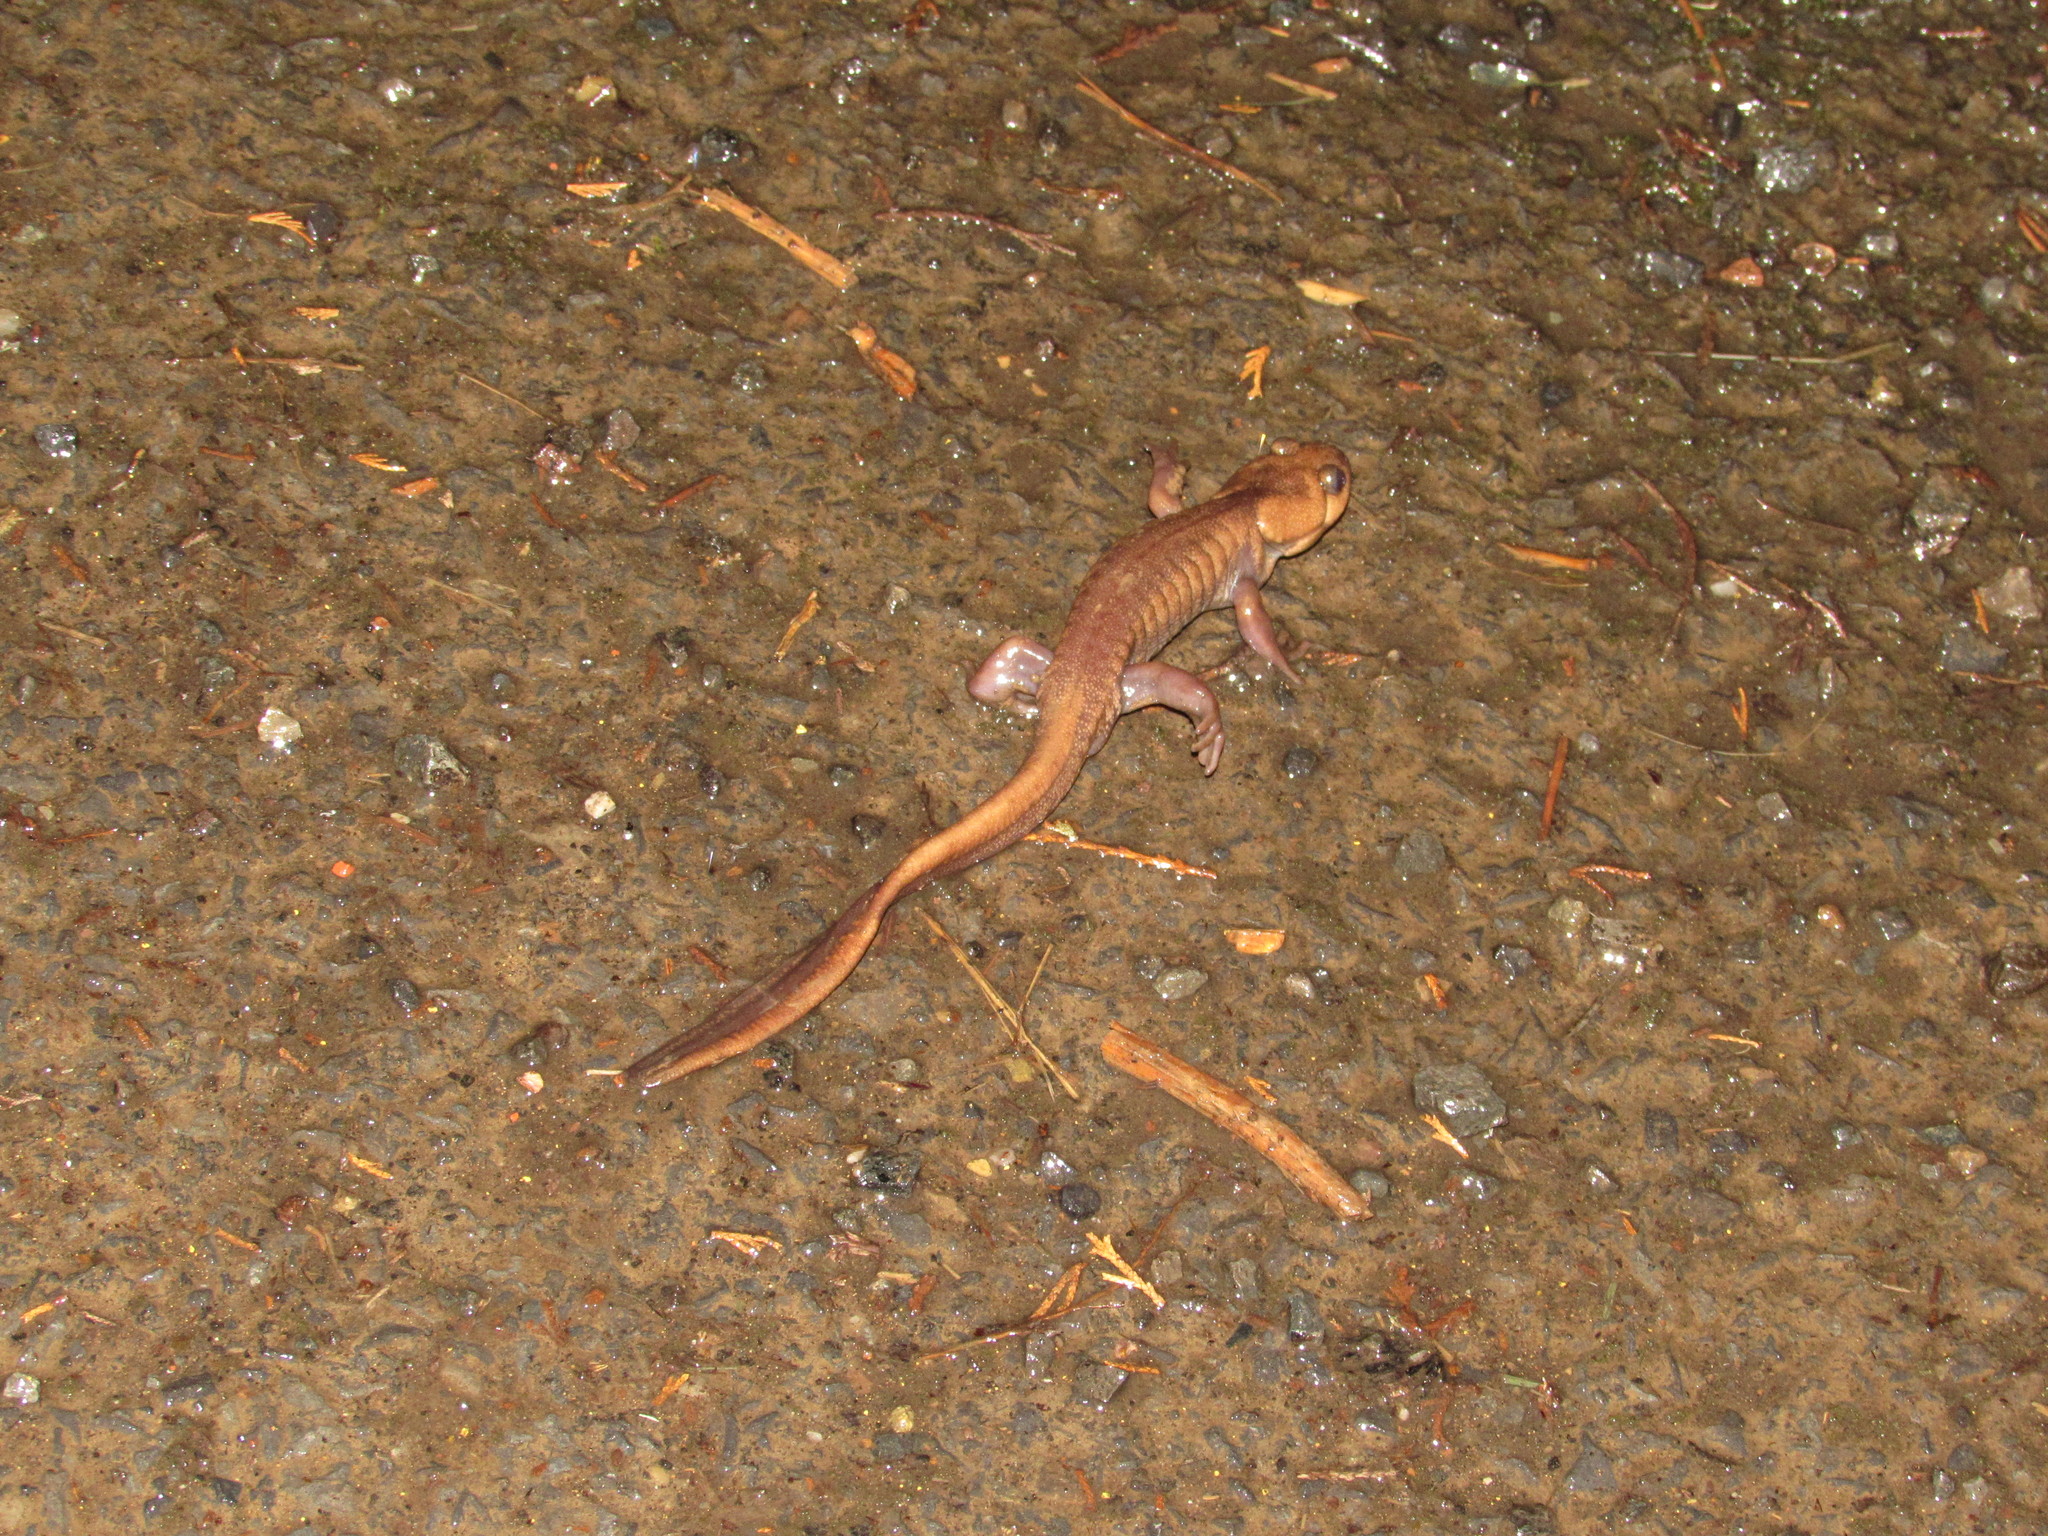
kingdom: Animalia
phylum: Chordata
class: Amphibia
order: Caudata
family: Ambystomatidae
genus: Ambystoma
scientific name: Ambystoma gracile
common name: Northwestern salamander
